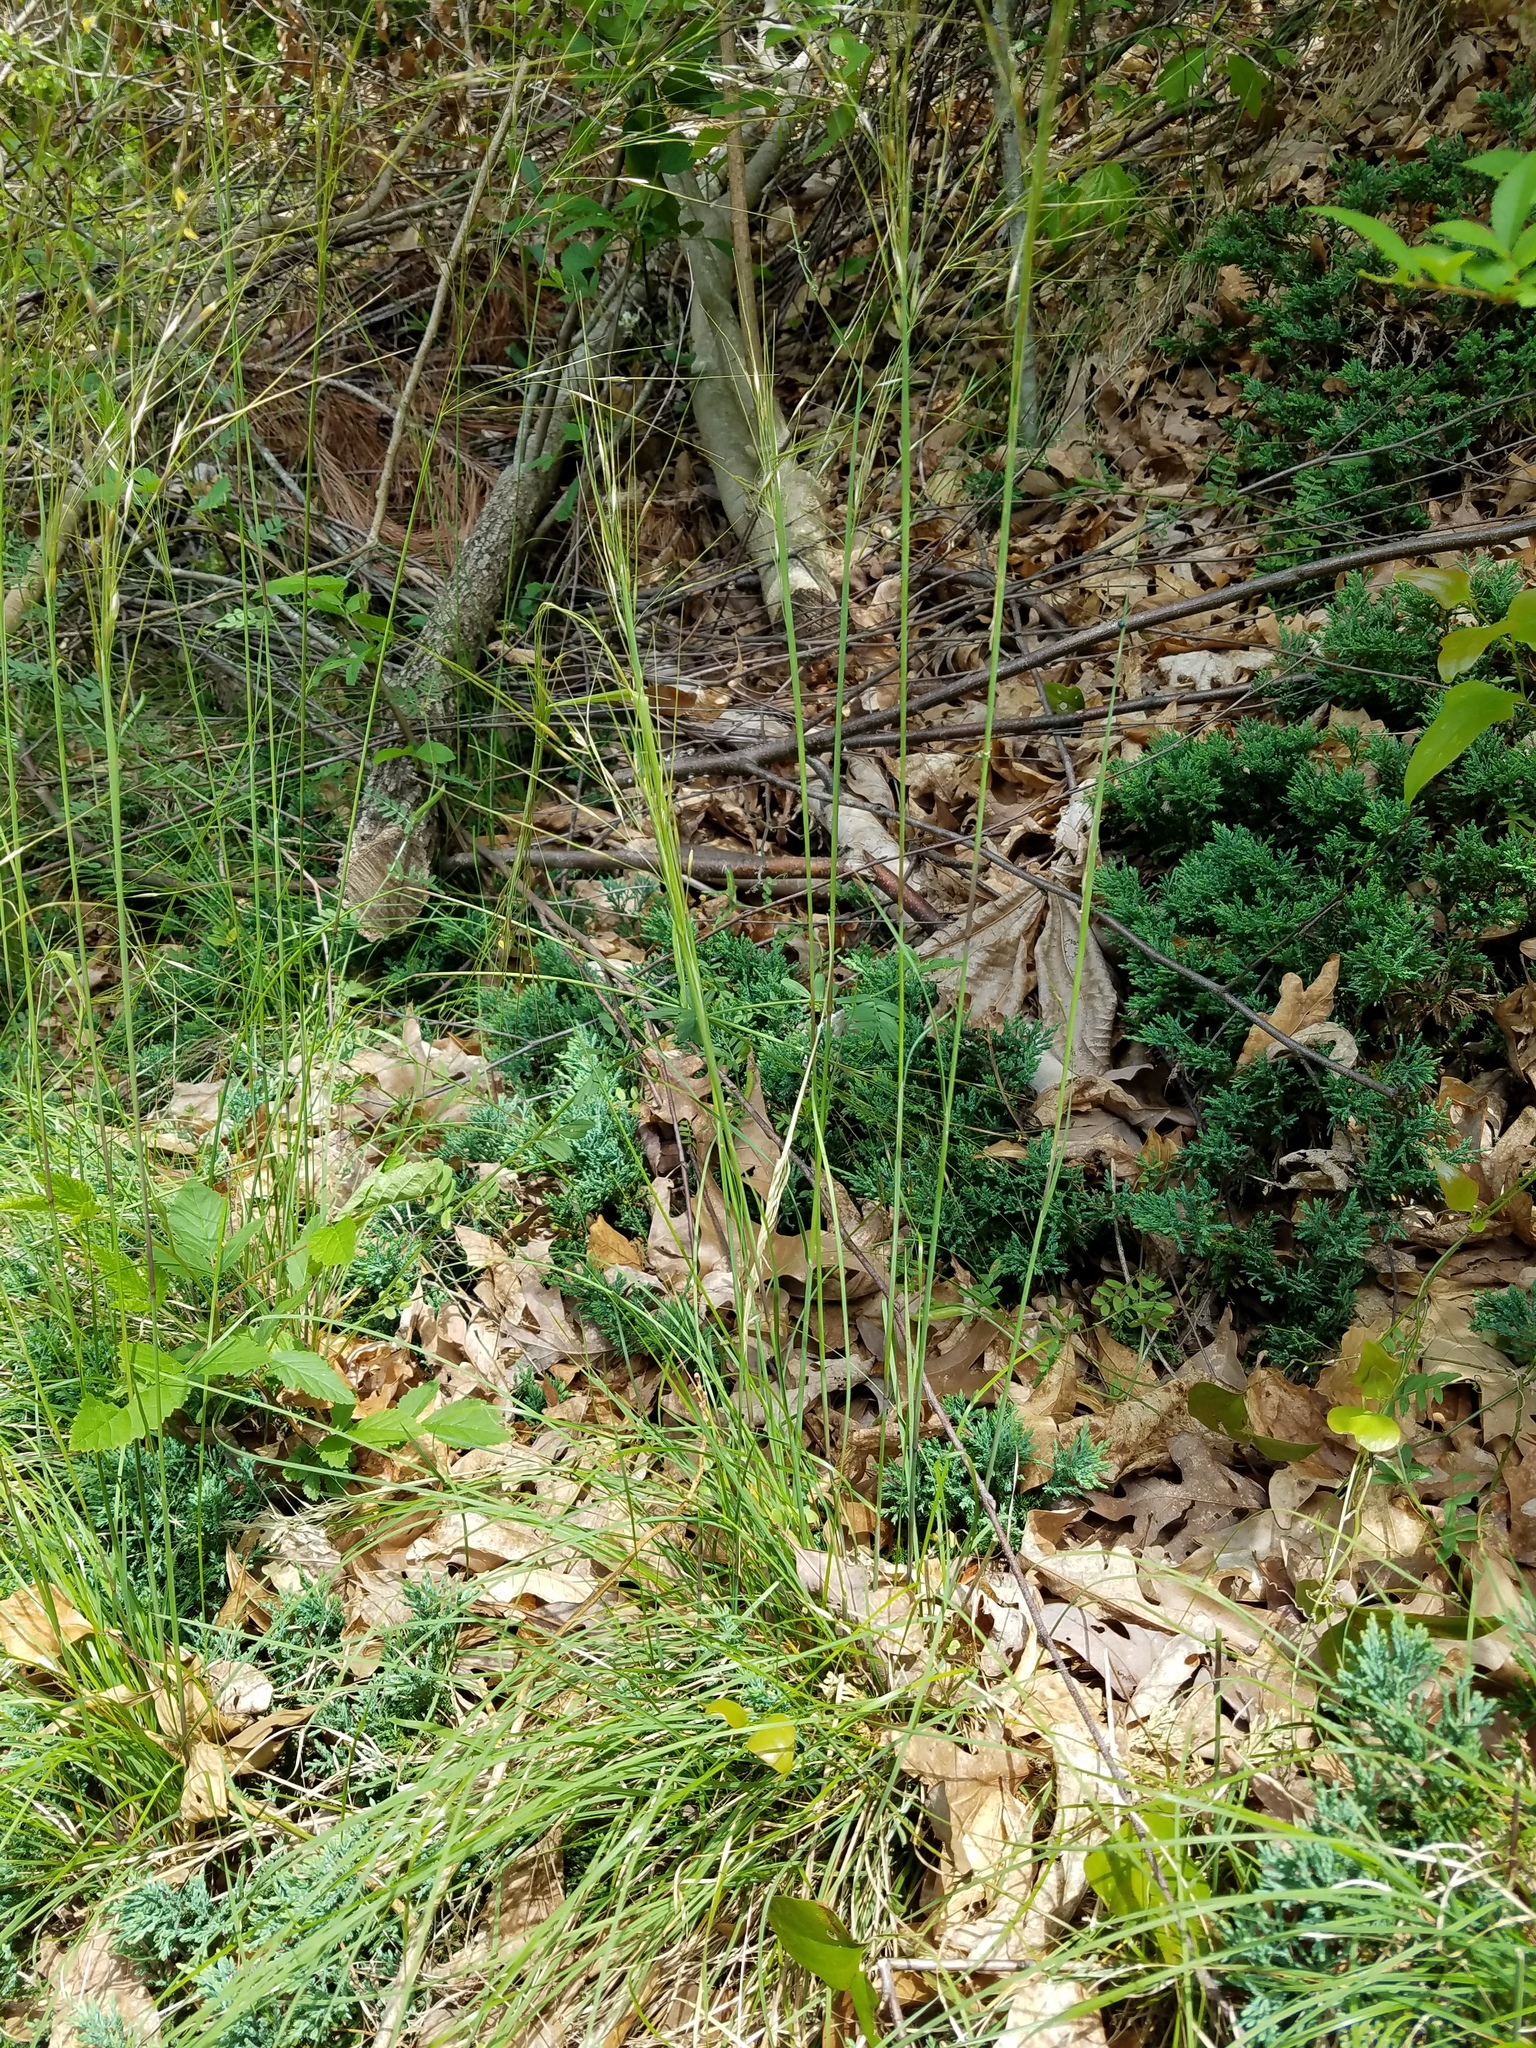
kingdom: Plantae
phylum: Tracheophyta
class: Liliopsida
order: Poales
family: Poaceae
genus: Piptochaetium
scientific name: Piptochaetium avenaceum
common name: Black bunchgrass
